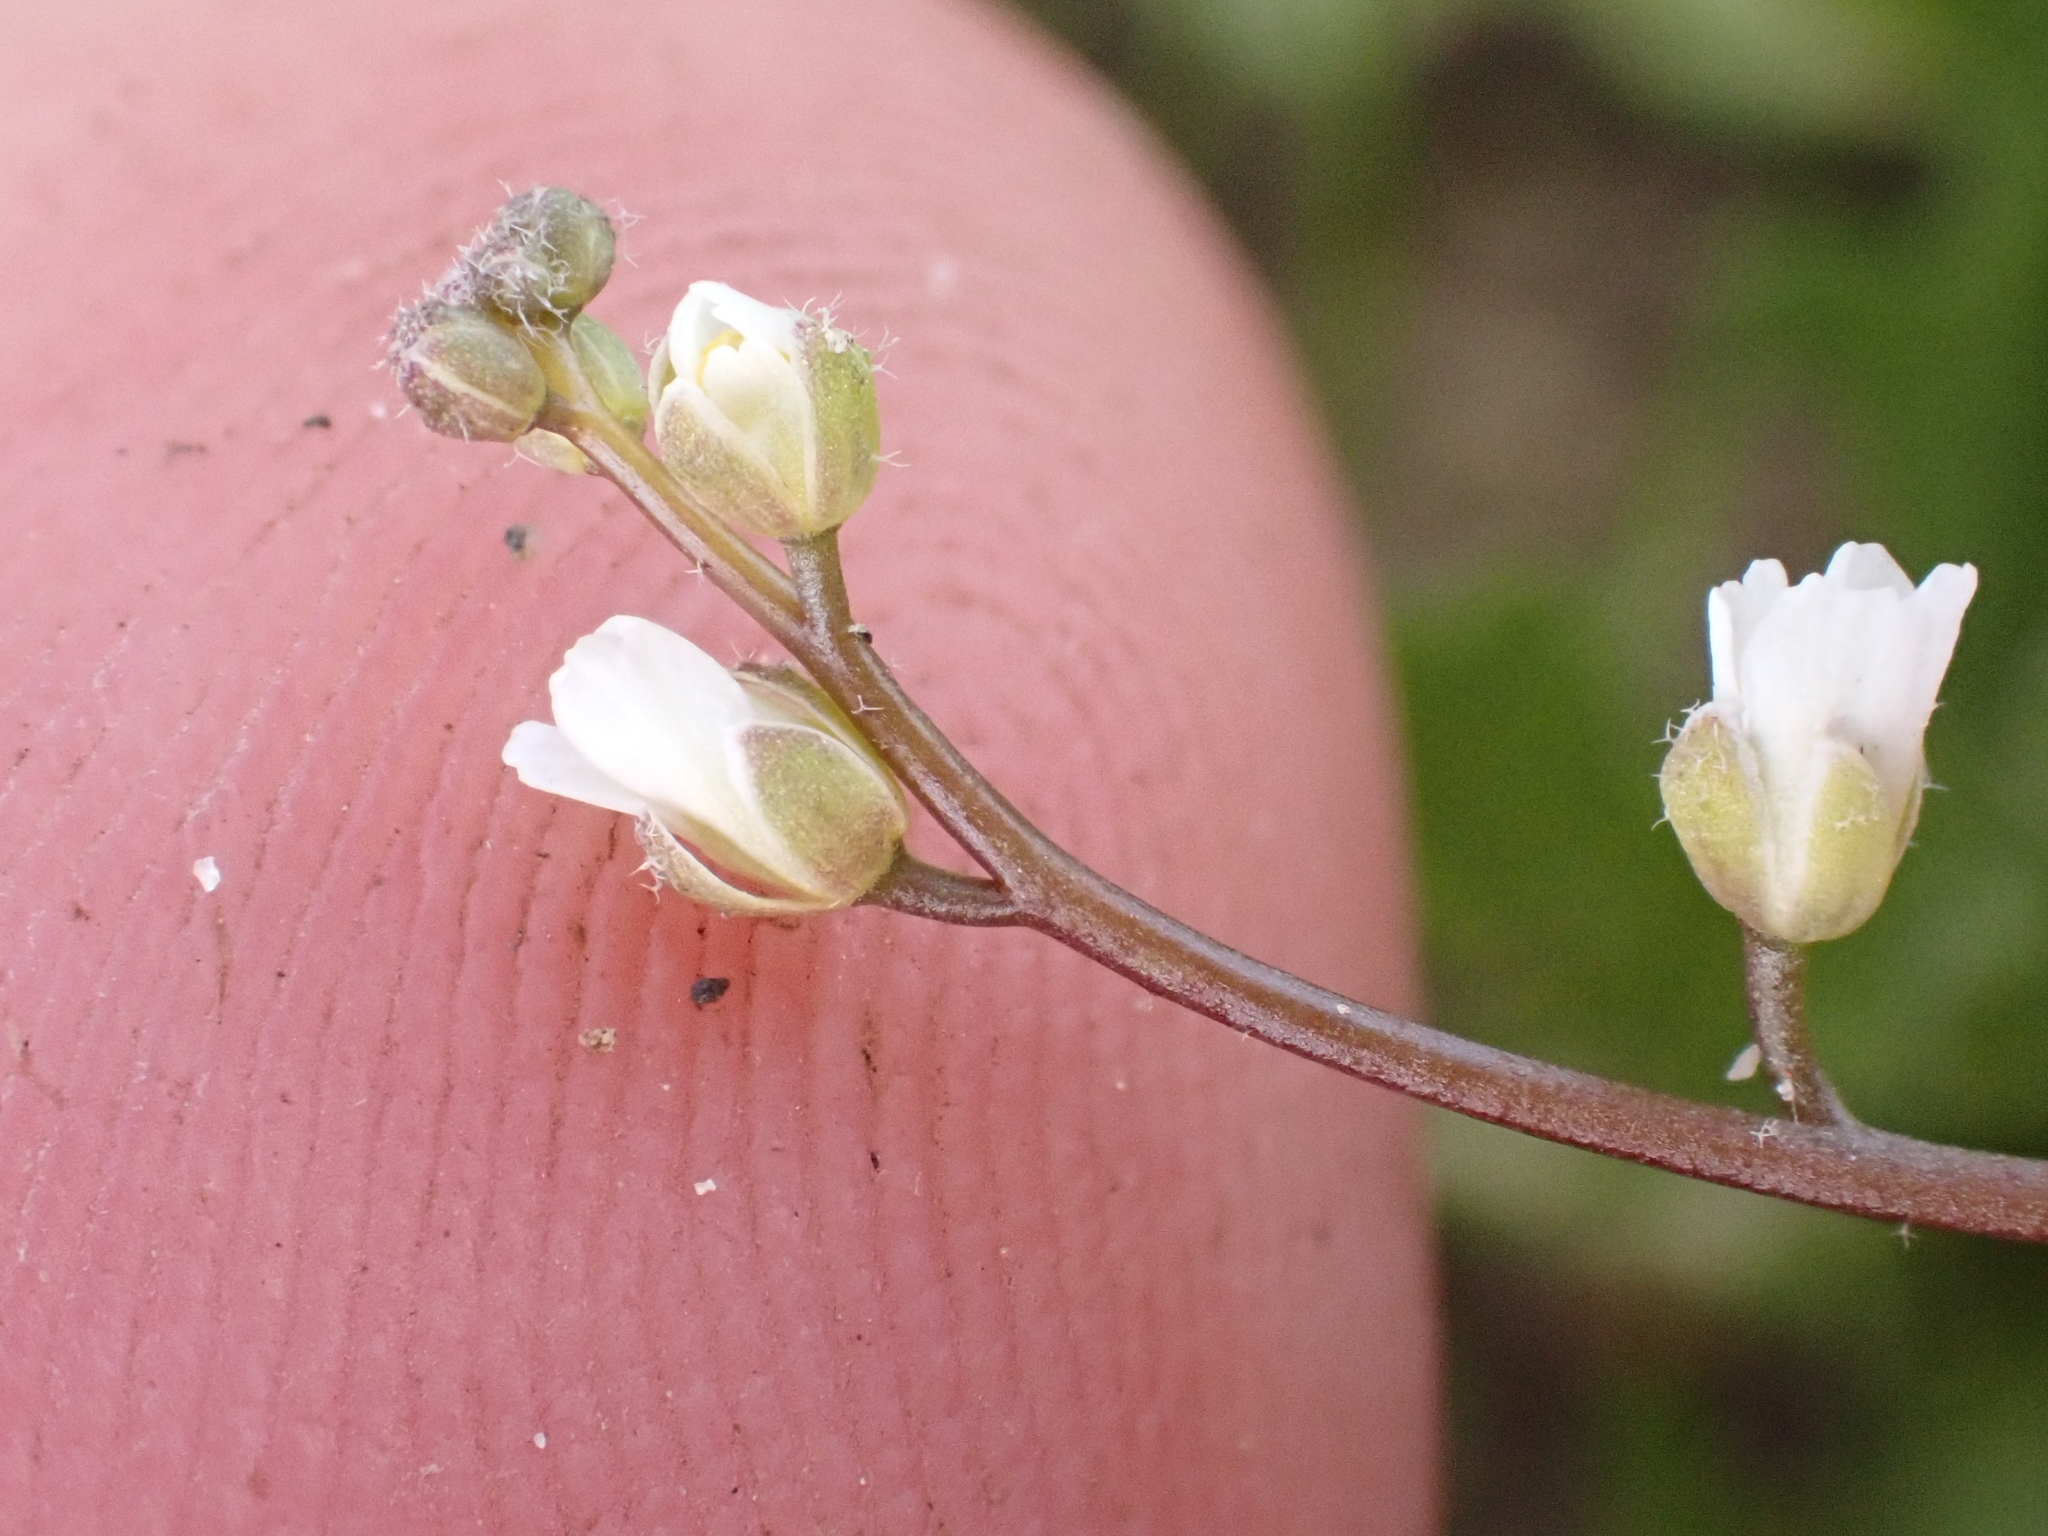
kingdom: Plantae
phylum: Tracheophyta
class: Magnoliopsida
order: Brassicales
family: Brassicaceae
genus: Athysanus
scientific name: Athysanus unilateralis
